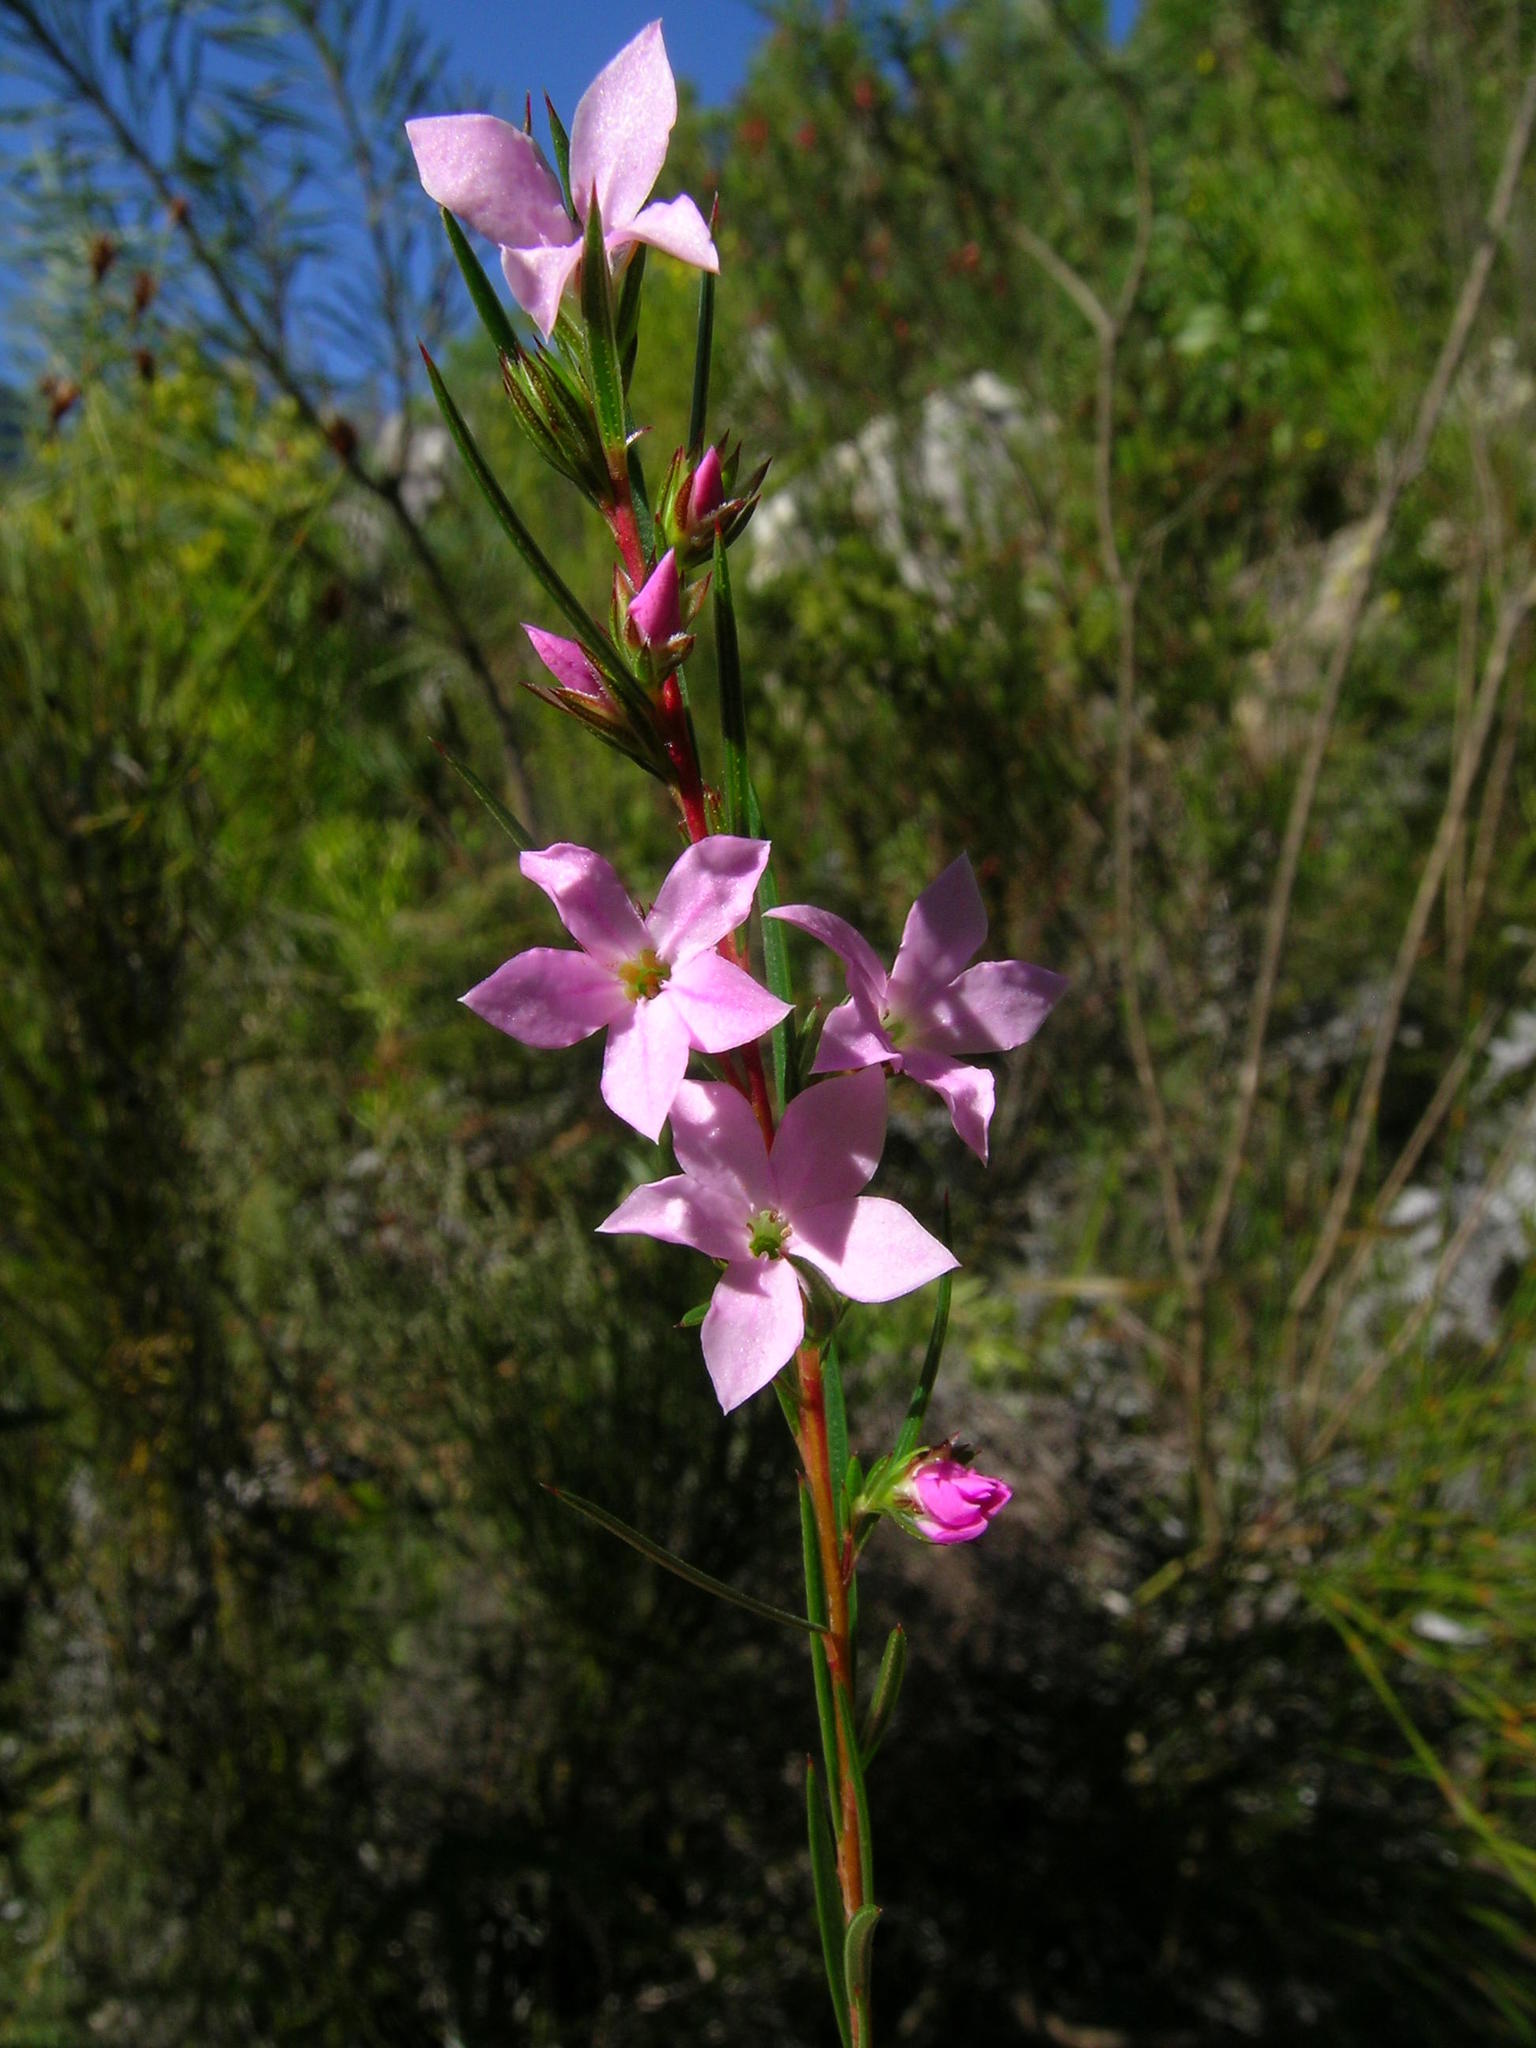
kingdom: Plantae
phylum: Tracheophyta
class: Magnoliopsida
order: Sapindales
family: Rutaceae
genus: Coleonema
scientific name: Coleonema pulchrum
